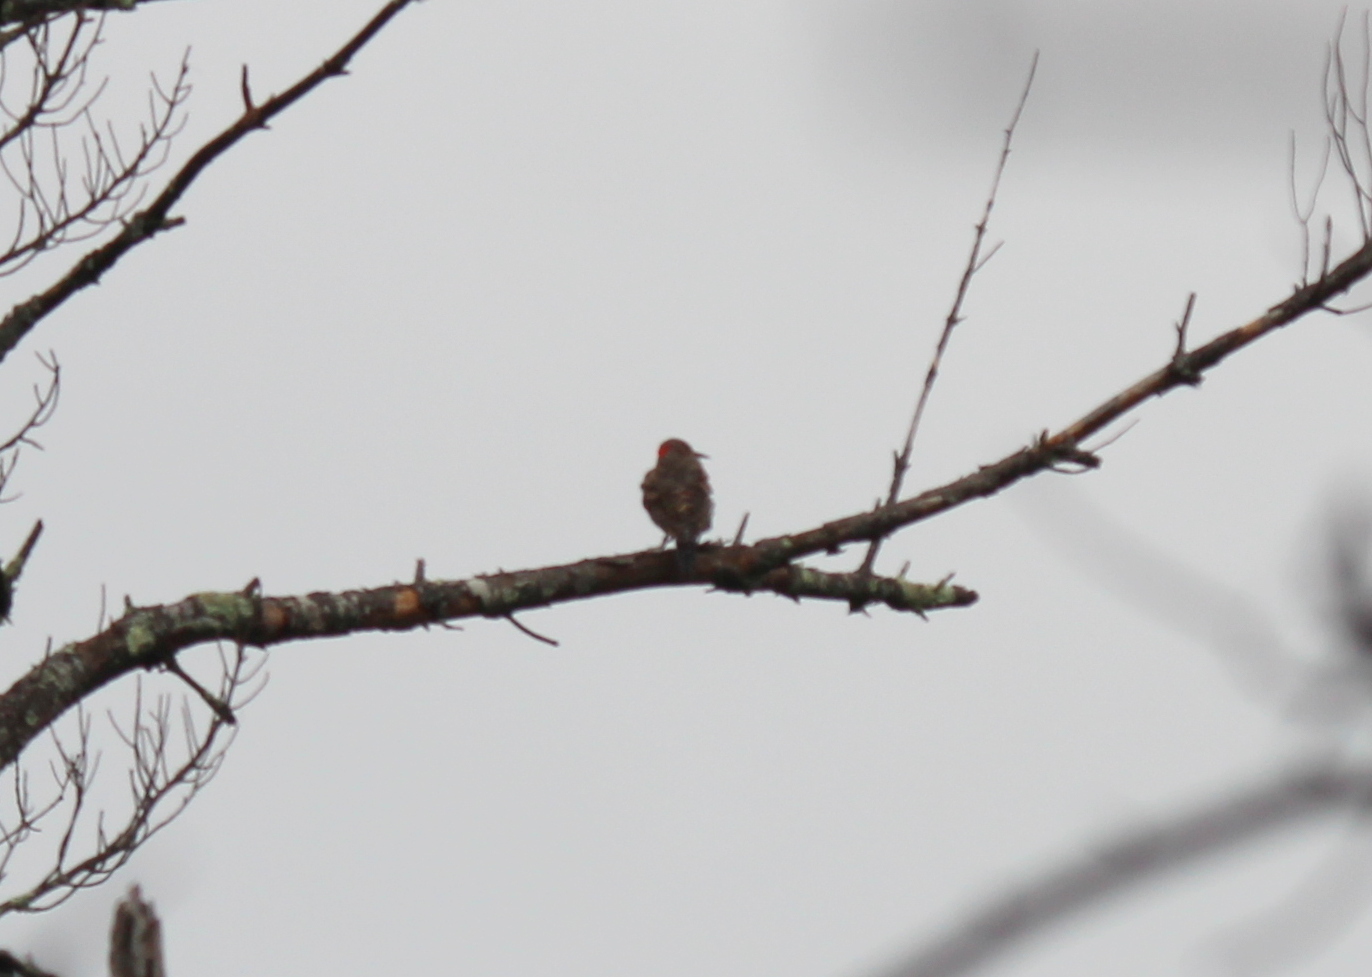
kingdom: Animalia
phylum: Chordata
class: Aves
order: Piciformes
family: Picidae
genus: Colaptes
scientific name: Colaptes auratus
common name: Northern flicker
